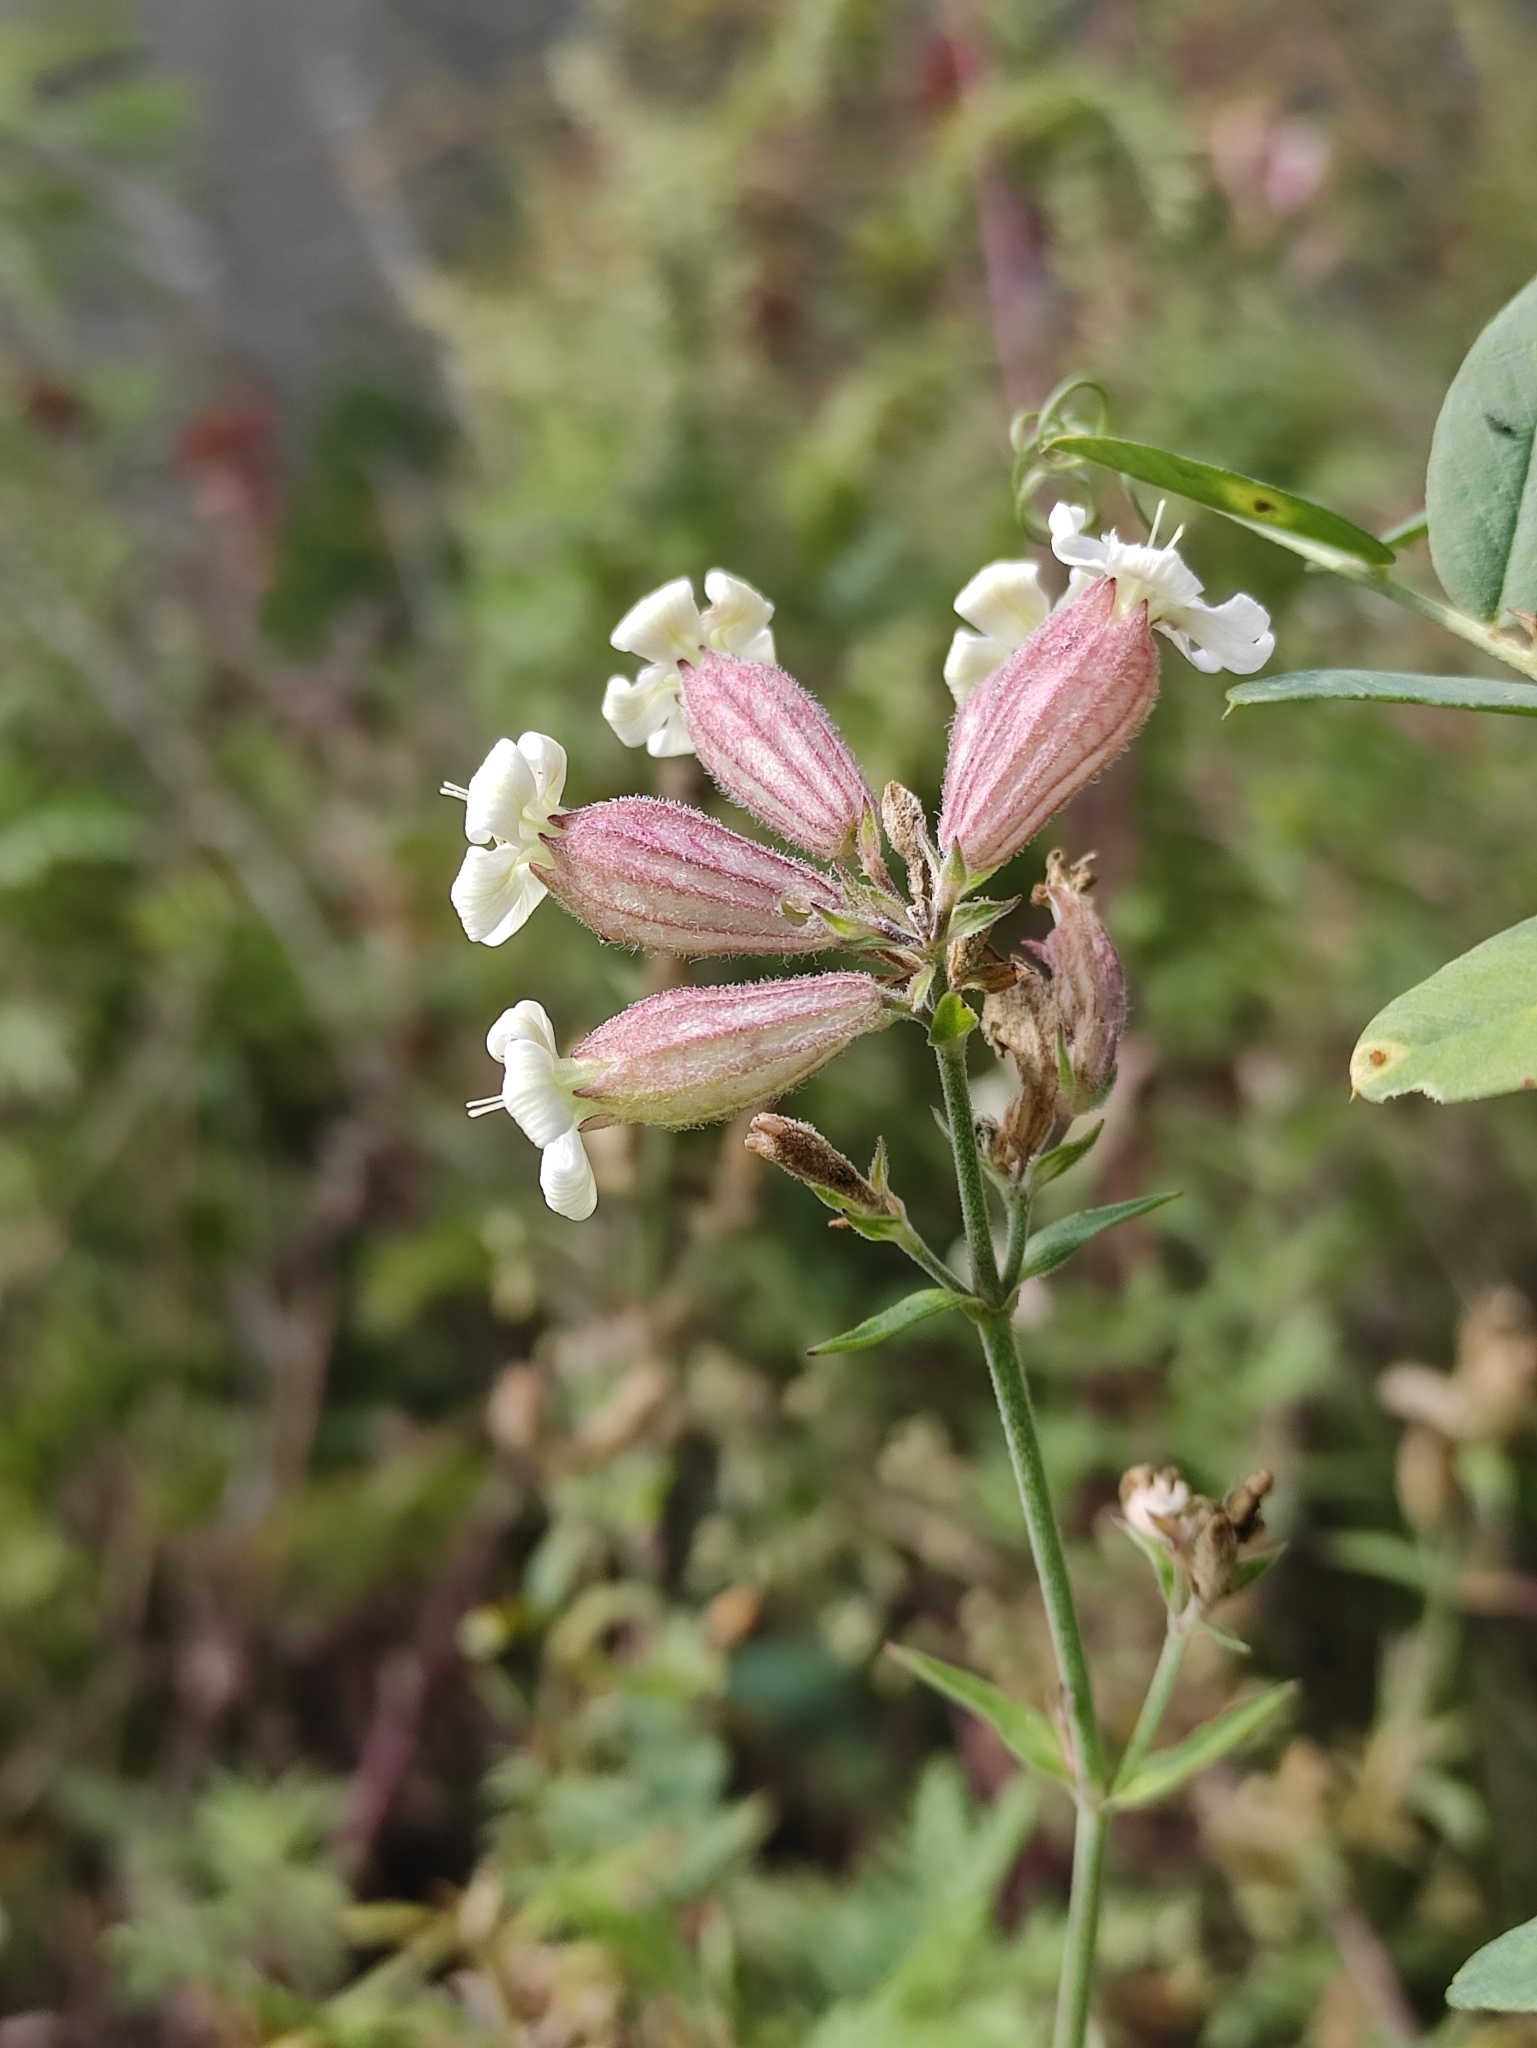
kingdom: Plantae
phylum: Tracheophyta
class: Magnoliopsida
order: Caryophyllales
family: Caryophyllaceae
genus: Silene
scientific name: Silene amoena
